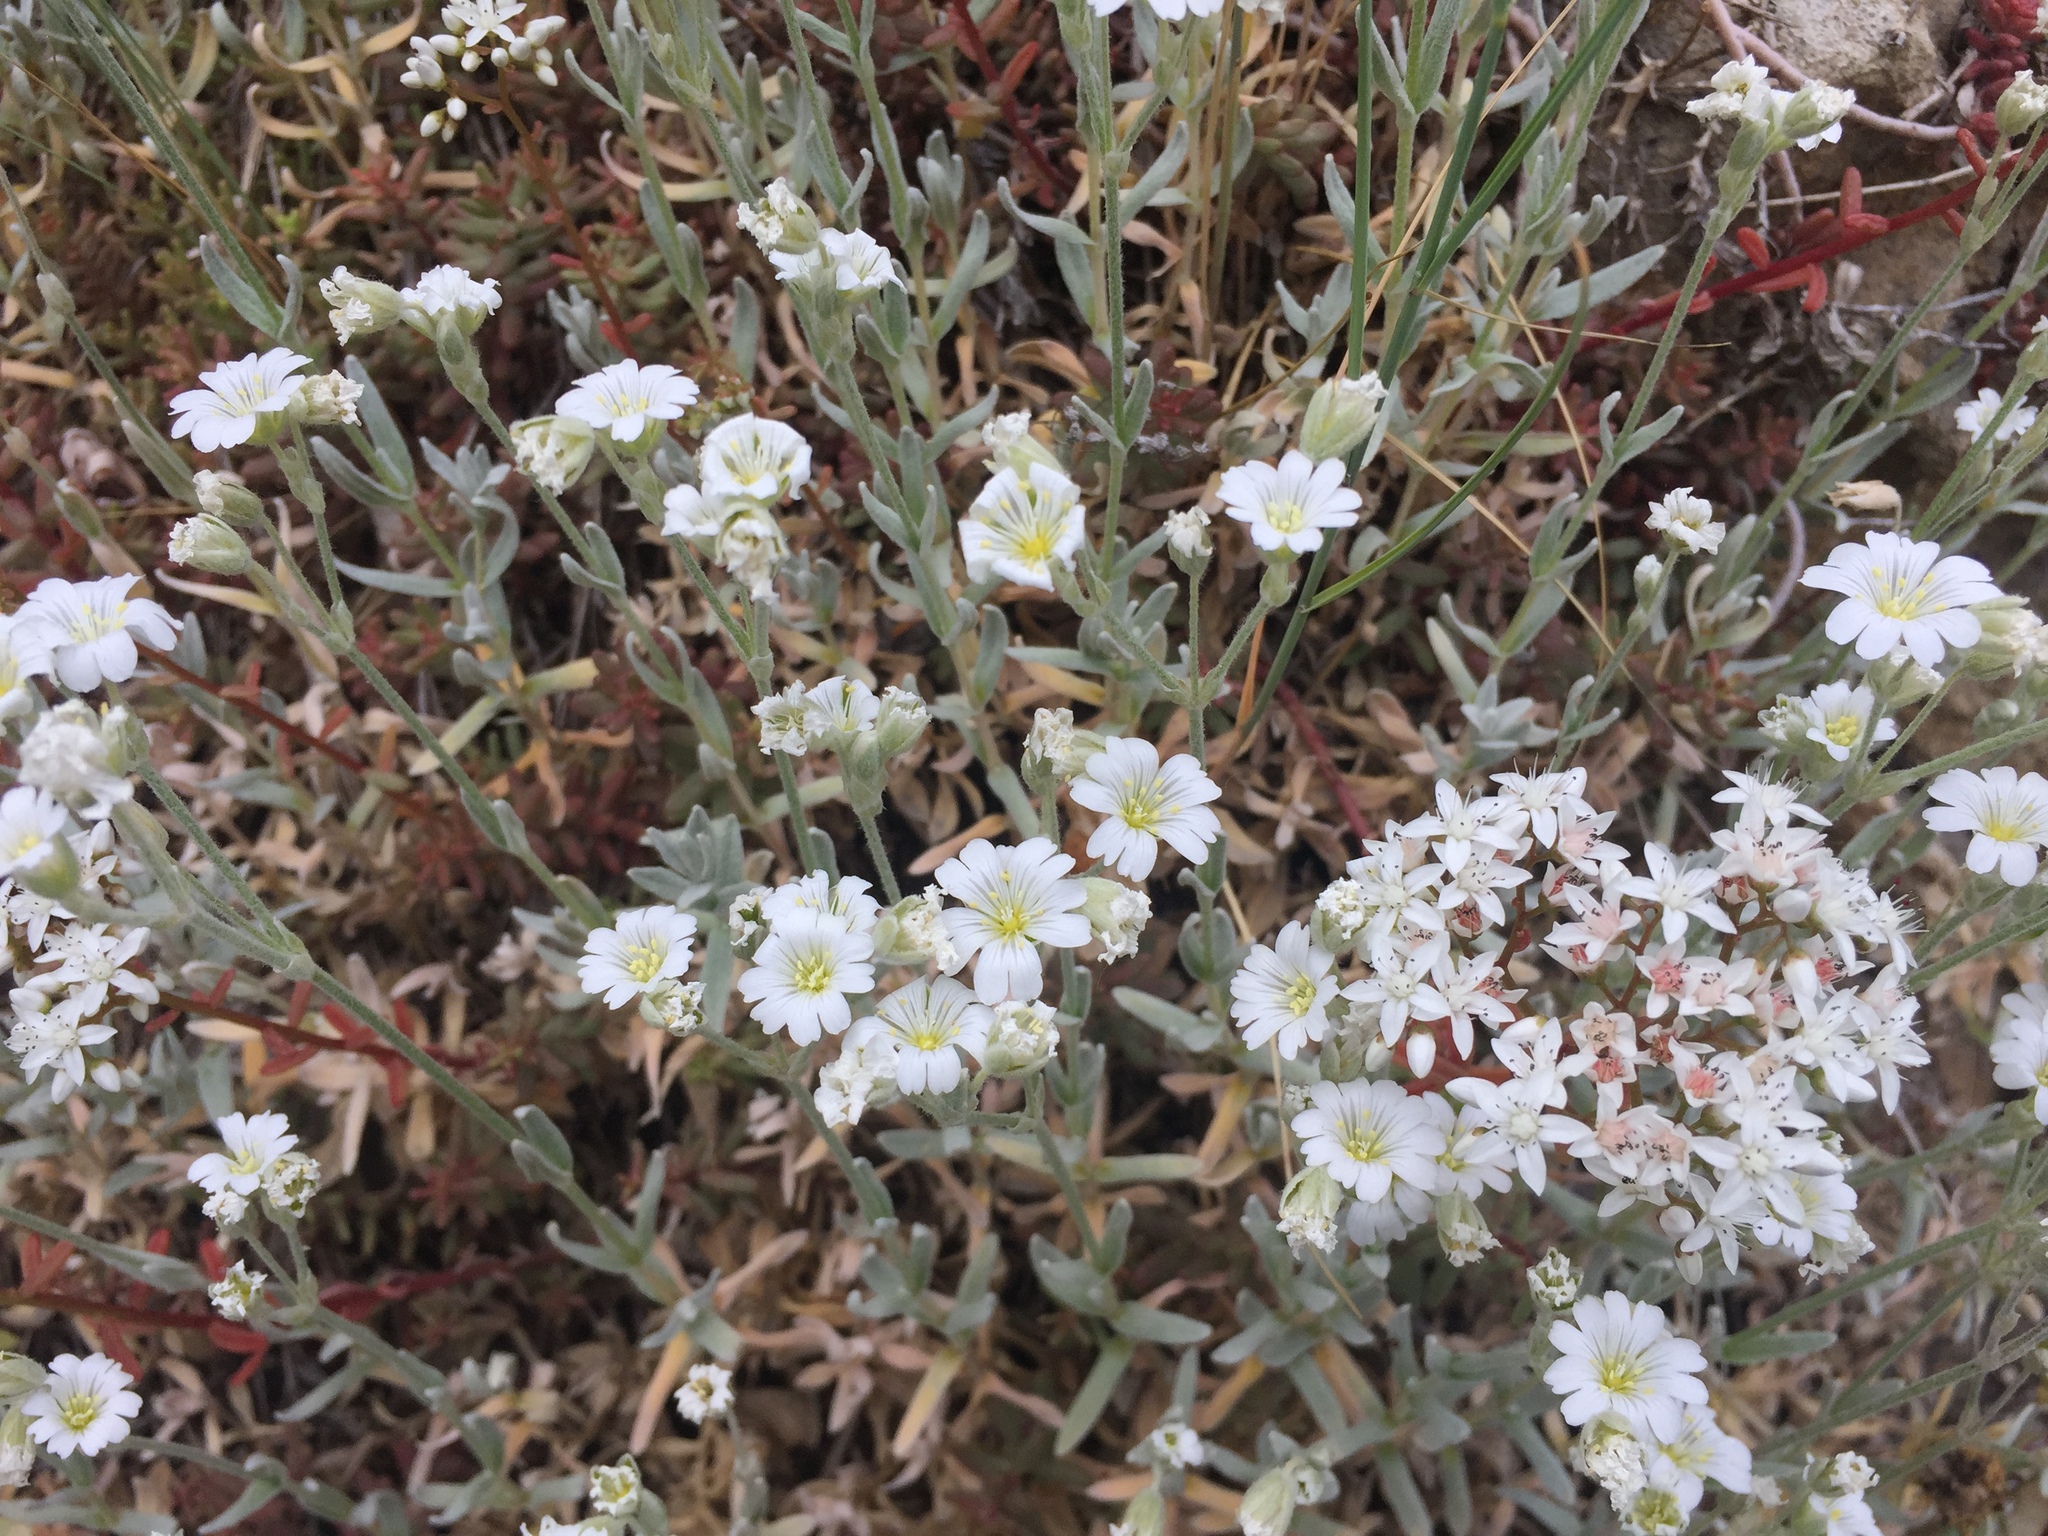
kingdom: Plantae
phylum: Tracheophyta
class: Magnoliopsida
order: Caryophyllales
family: Caryophyllaceae
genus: Cerastium
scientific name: Cerastium tomentosum
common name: Snow-in-summer
